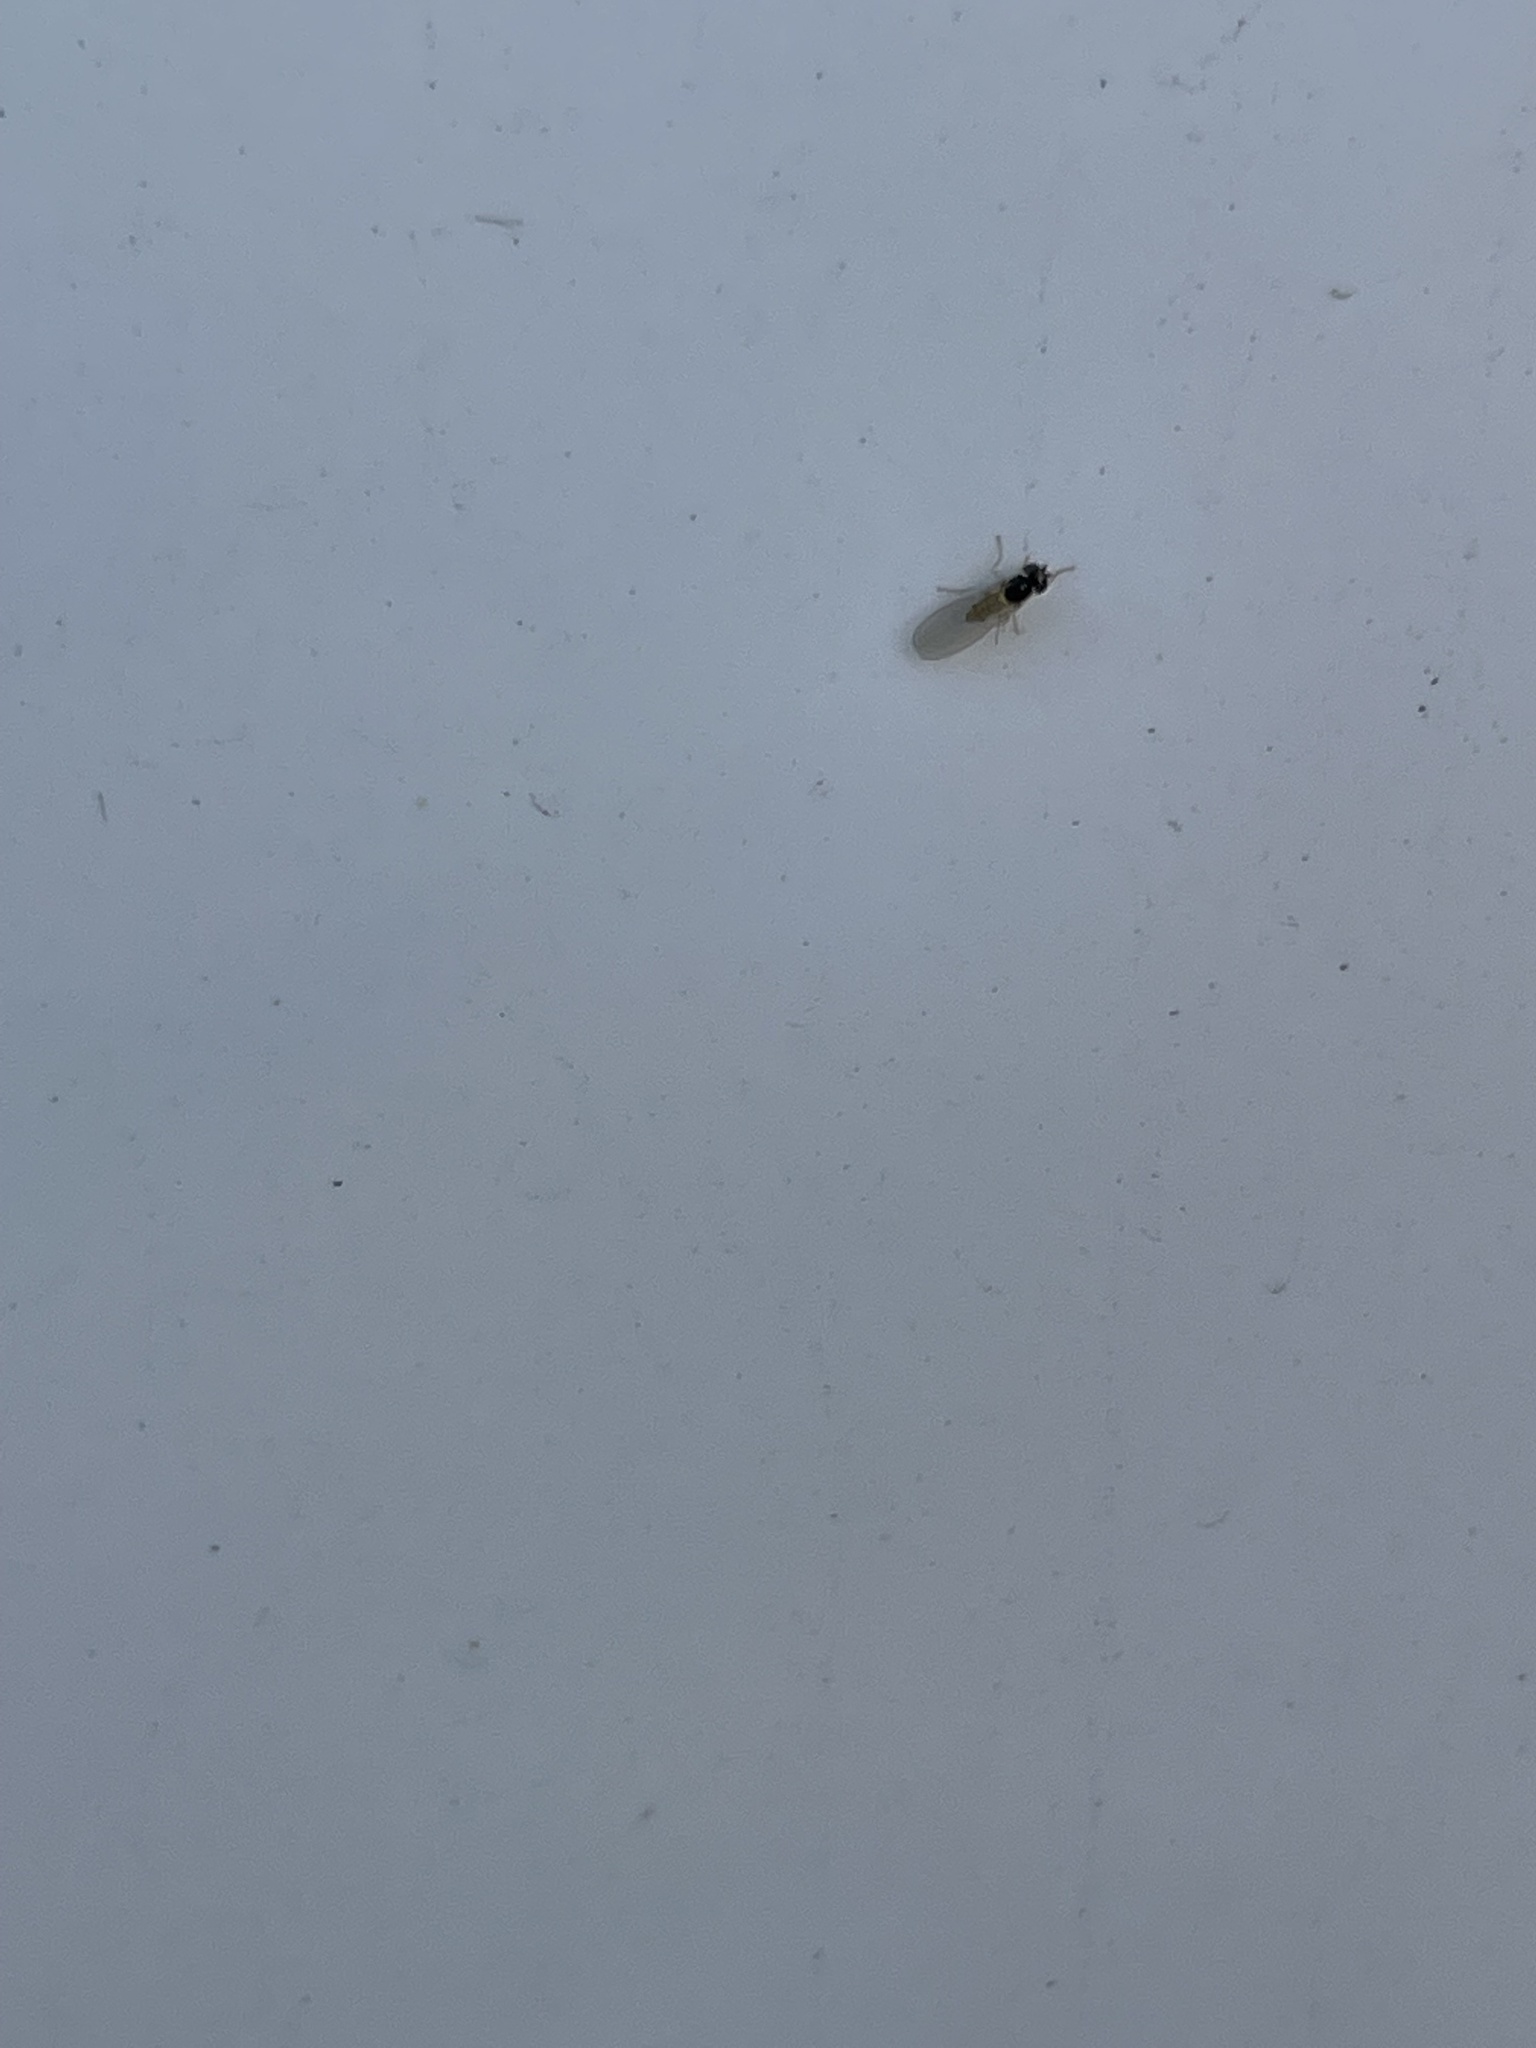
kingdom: Animalia
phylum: Arthropoda
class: Insecta
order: Diptera
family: Asteiidae
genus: Asteia
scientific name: Asteia beata
